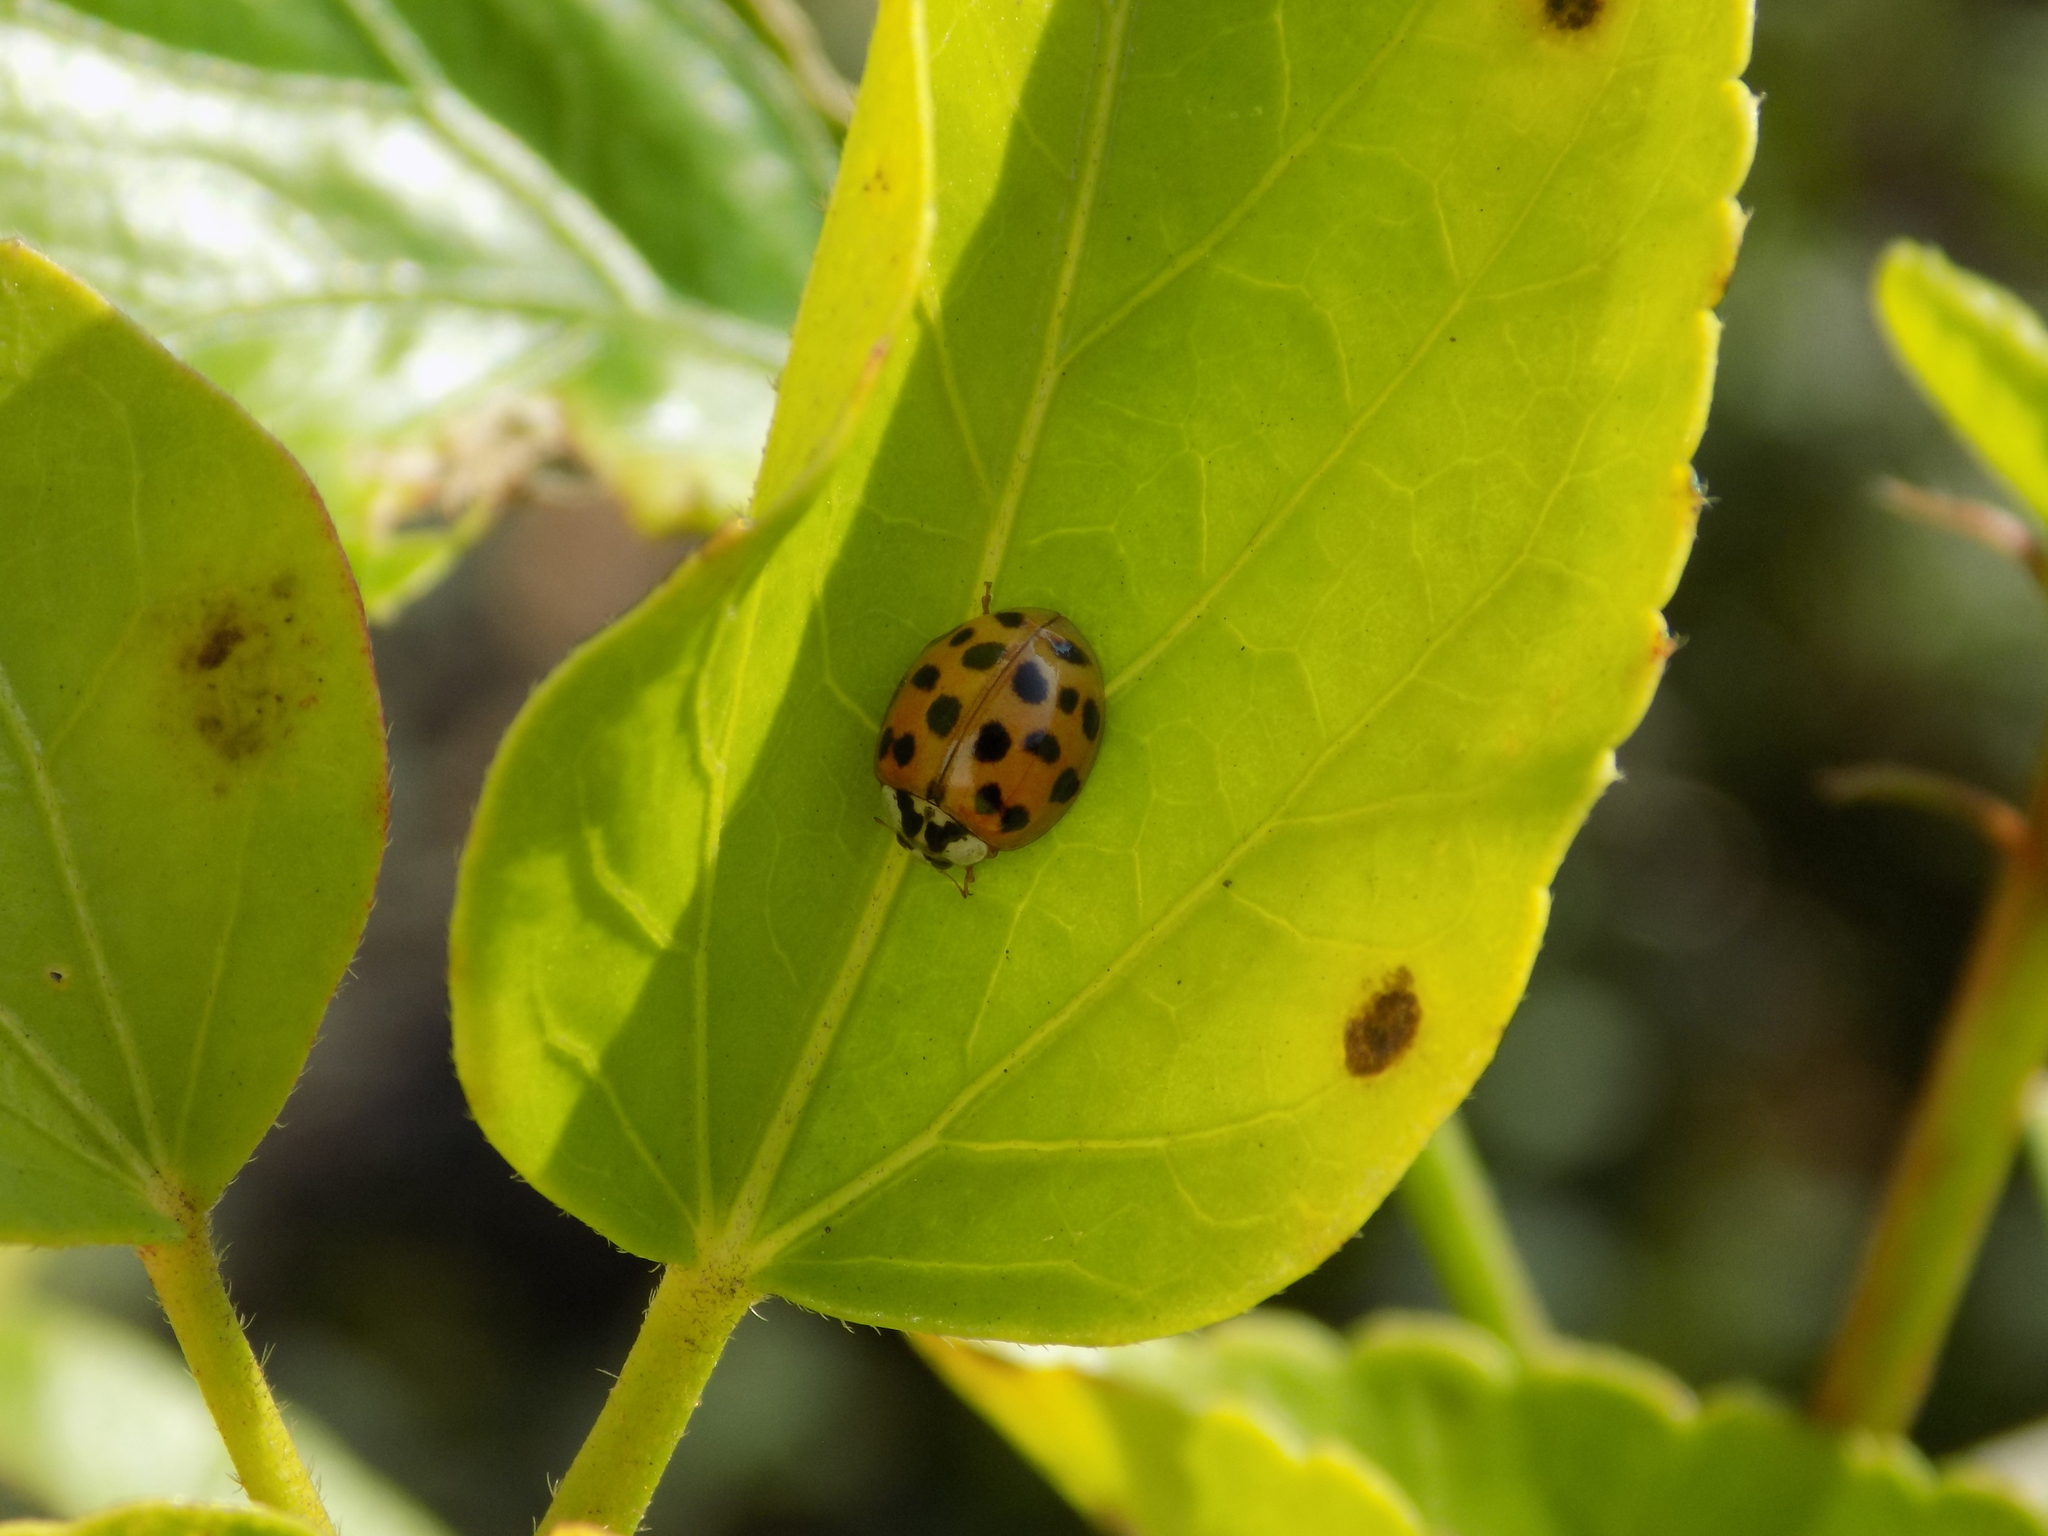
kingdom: Animalia
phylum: Arthropoda
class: Insecta
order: Coleoptera
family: Coccinellidae
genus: Harmonia
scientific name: Harmonia axyridis
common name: Harlequin ladybird
